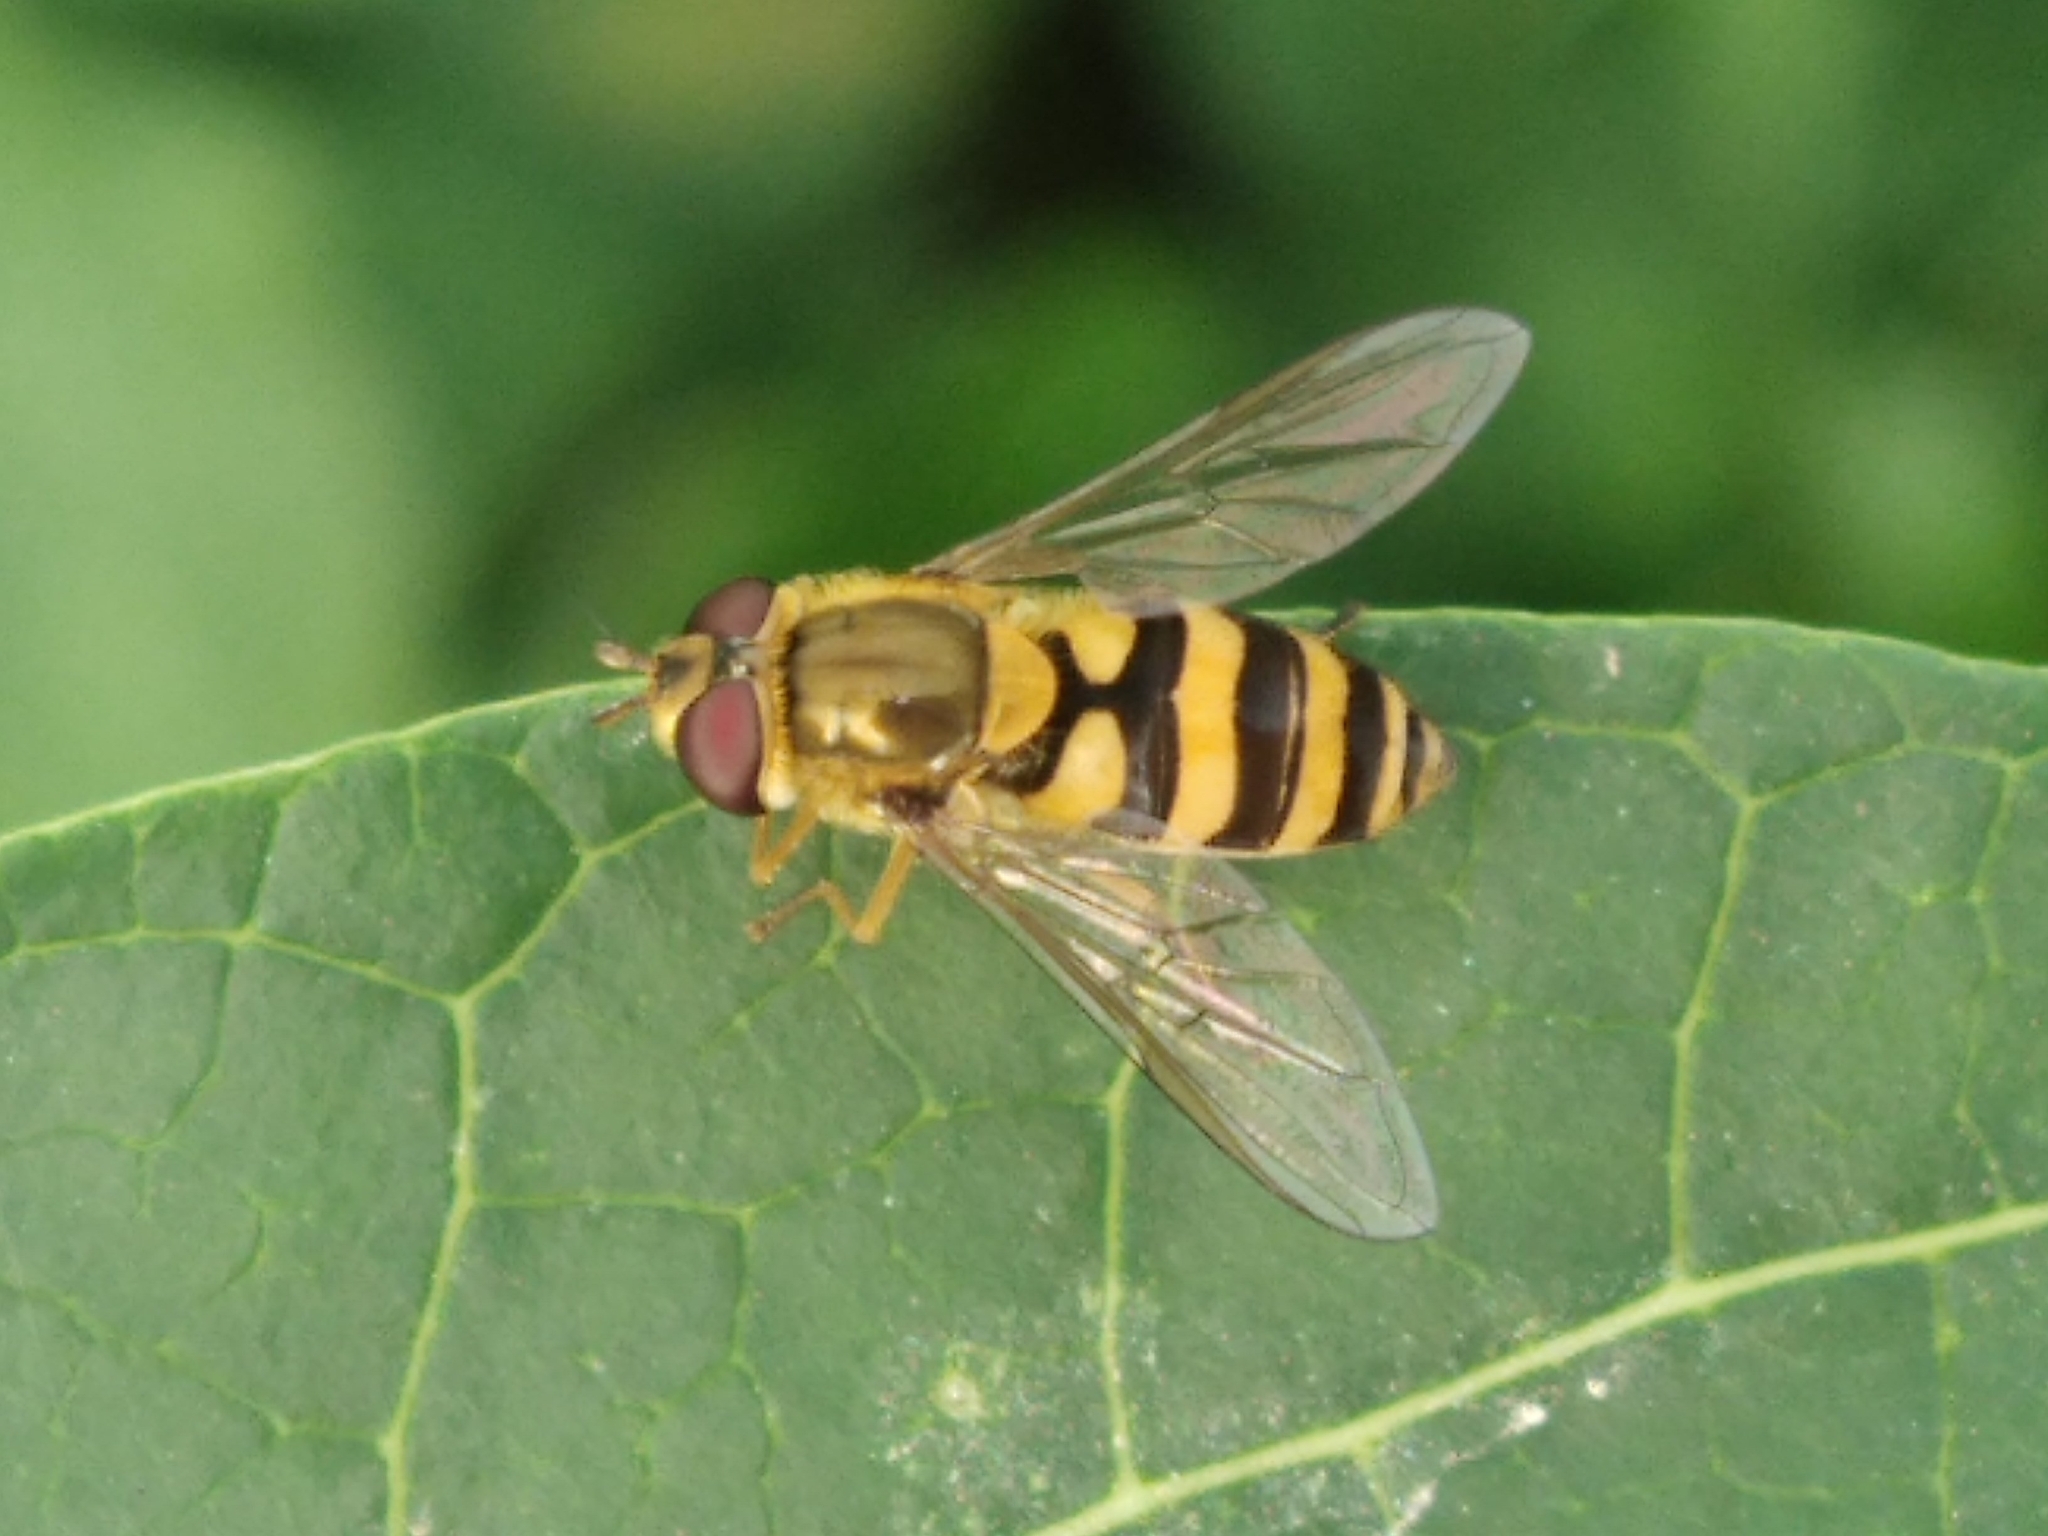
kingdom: Animalia
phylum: Arthropoda
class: Insecta
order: Diptera
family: Syrphidae
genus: Syrphus
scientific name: Syrphus
